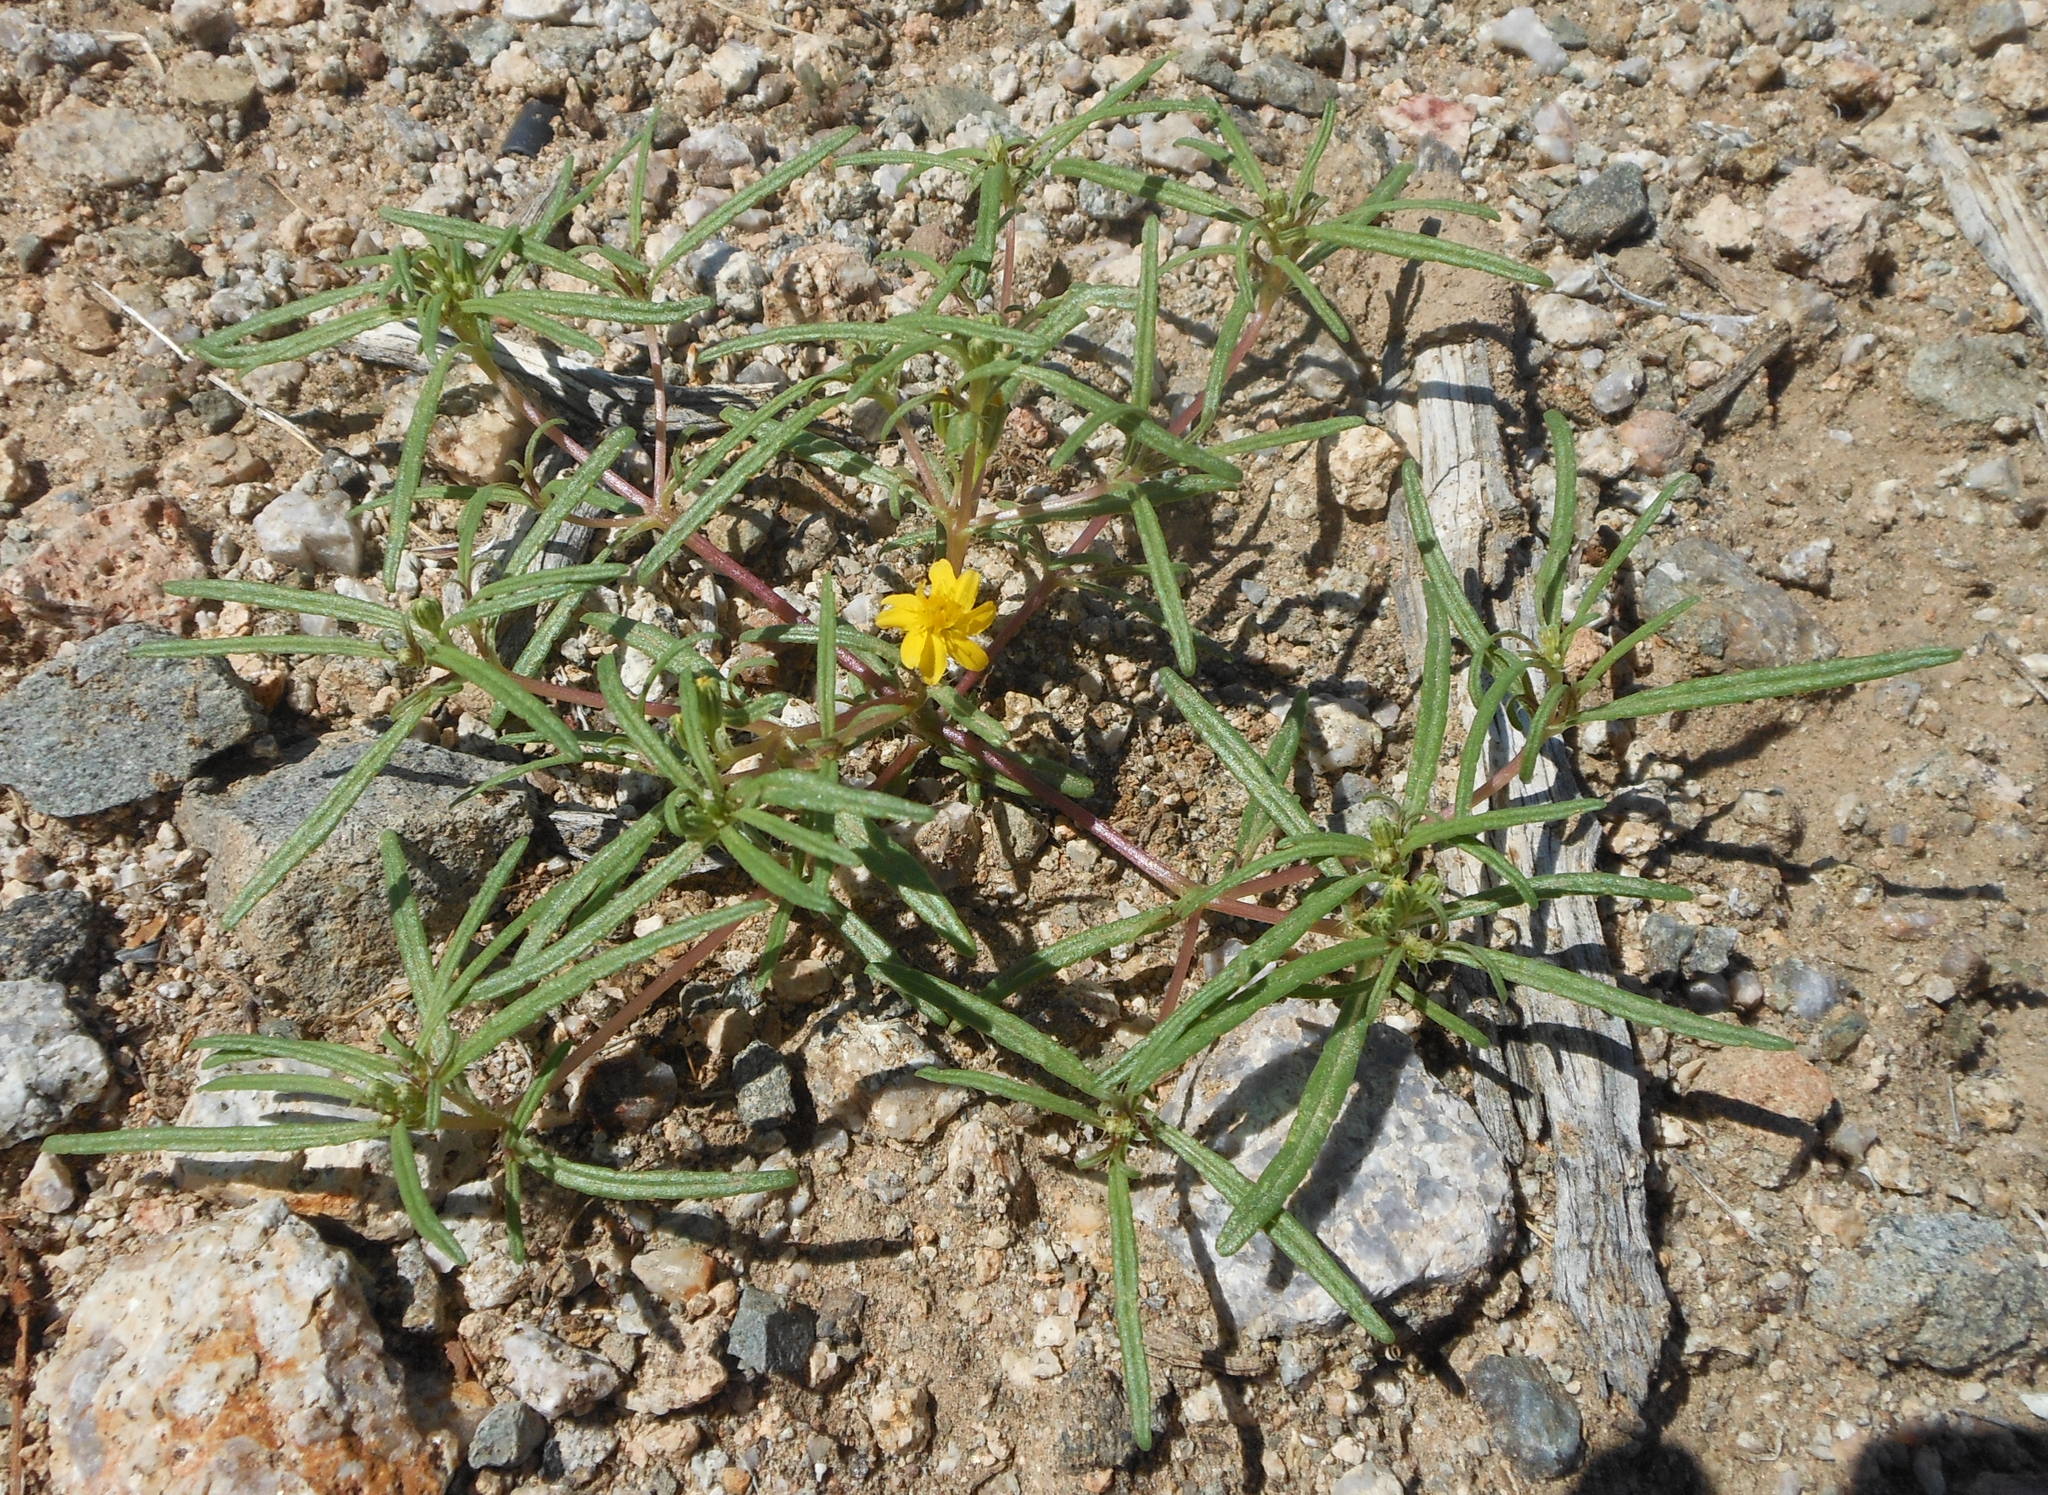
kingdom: Plantae
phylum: Tracheophyta
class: Magnoliopsida
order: Asterales
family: Asteraceae
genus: Pectis
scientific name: Pectis papposa
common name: Many-bristle chinchweed
